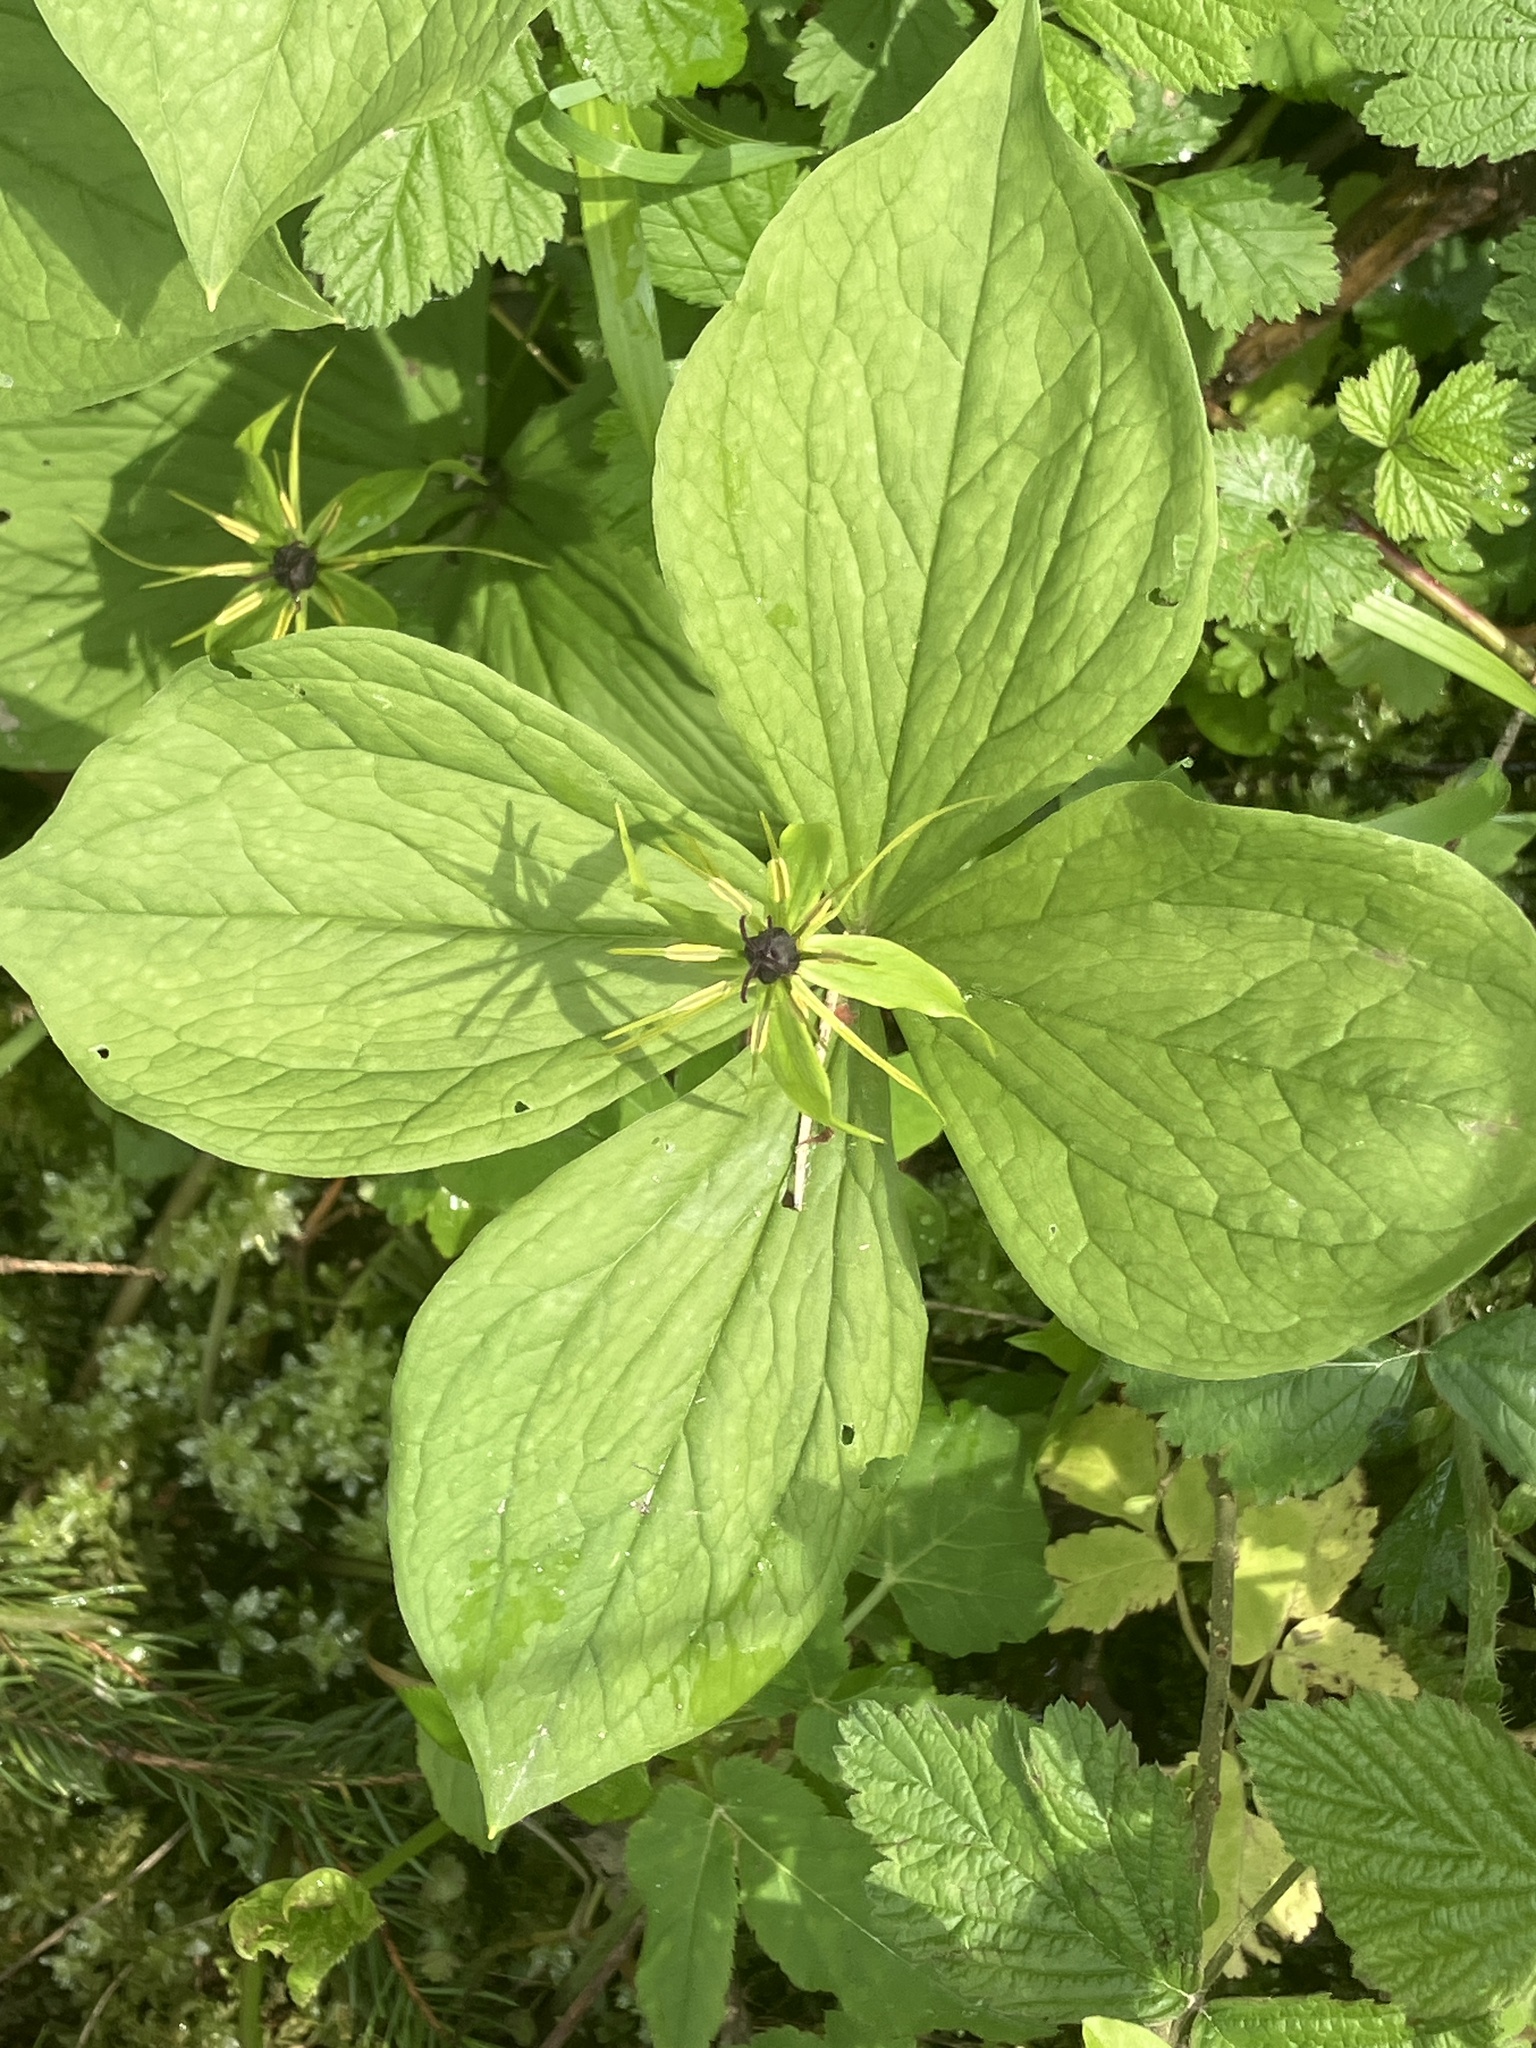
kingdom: Plantae
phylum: Tracheophyta
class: Liliopsida
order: Liliales
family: Melanthiaceae
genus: Paris
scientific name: Paris quadrifolia
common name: Herb-paris
